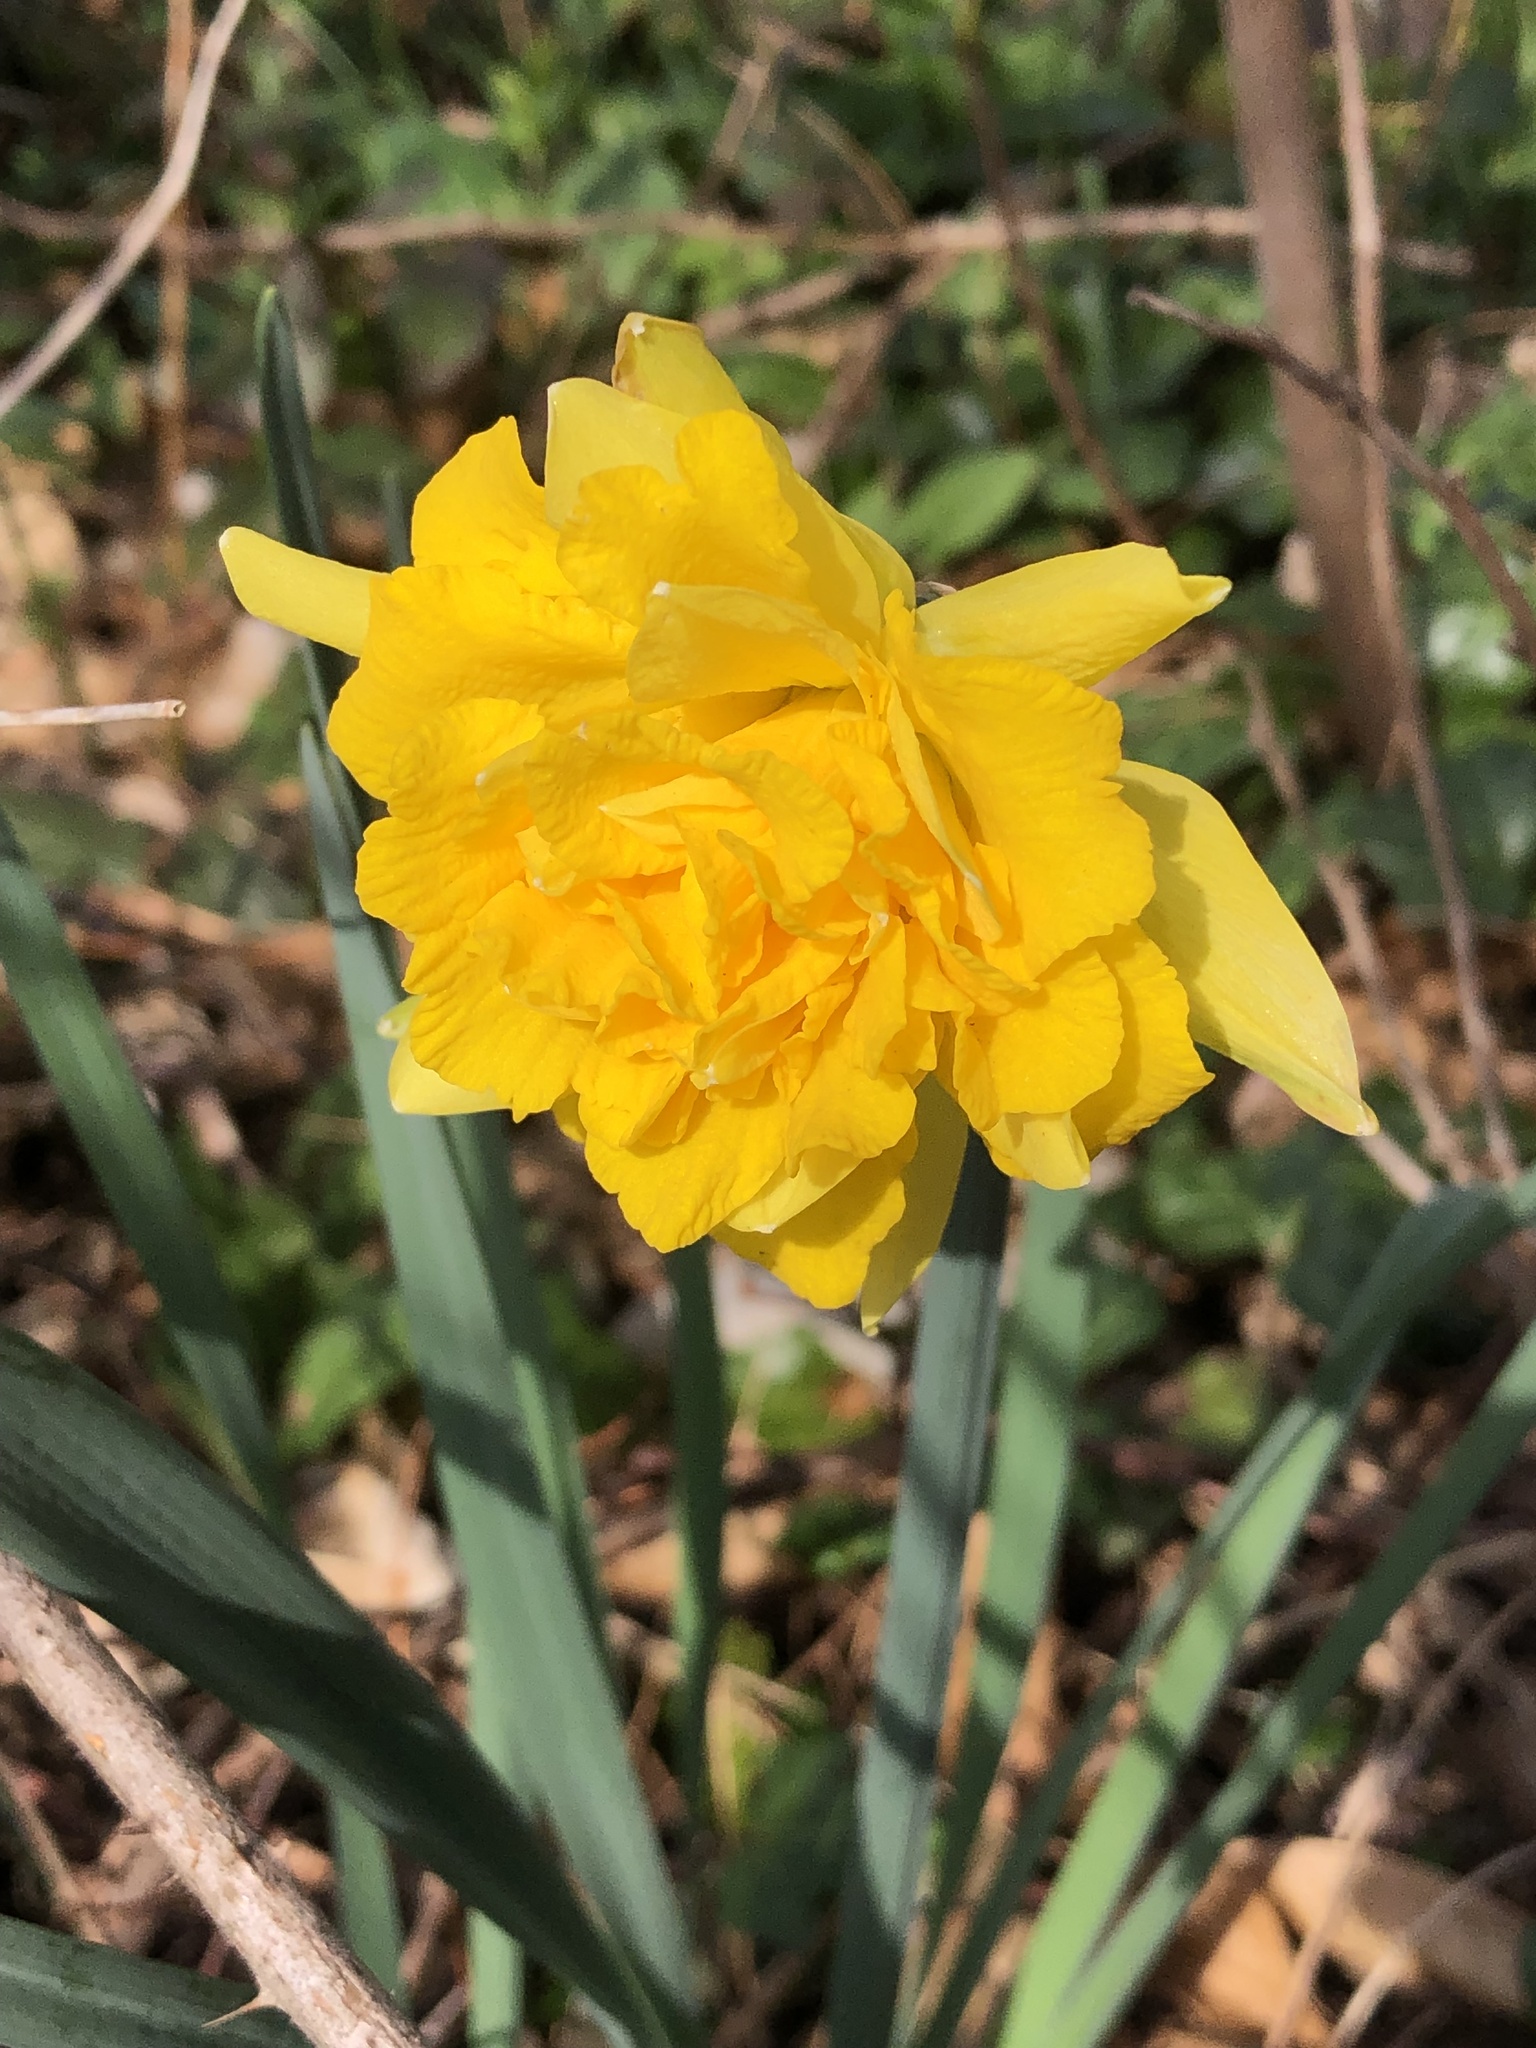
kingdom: Plantae
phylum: Tracheophyta
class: Liliopsida
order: Asparagales
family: Amaryllidaceae
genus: Narcissus
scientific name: Narcissus pseudonarcissus
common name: Daffodil
